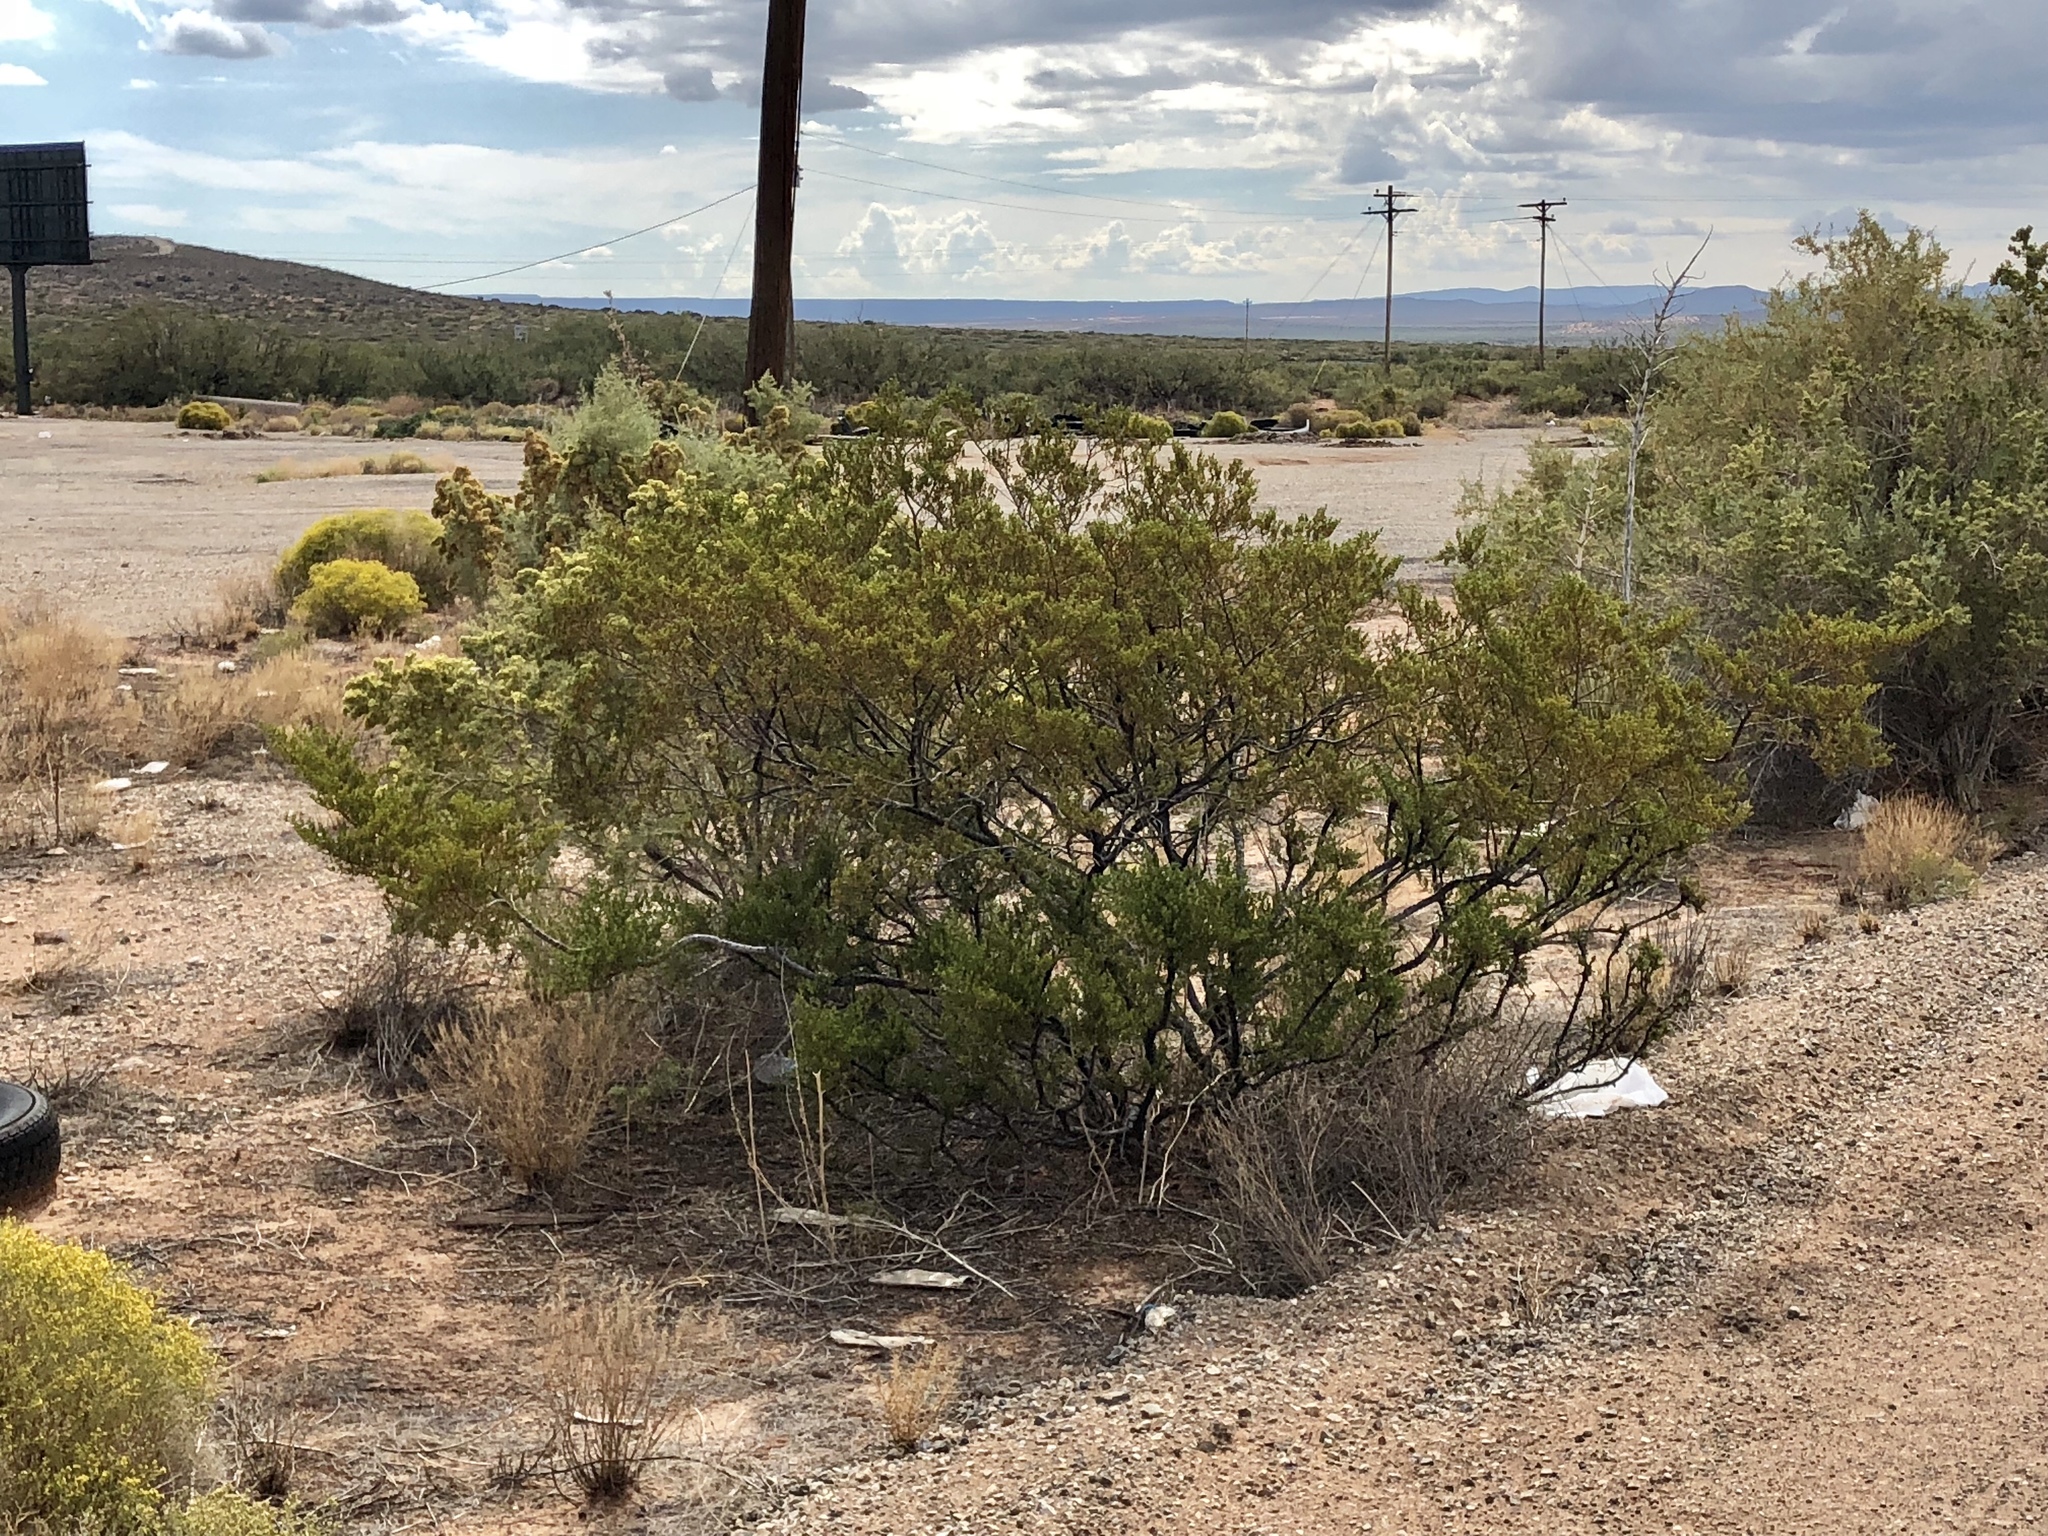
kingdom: Plantae
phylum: Tracheophyta
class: Magnoliopsida
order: Zygophyllales
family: Zygophyllaceae
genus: Larrea
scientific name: Larrea tridentata
